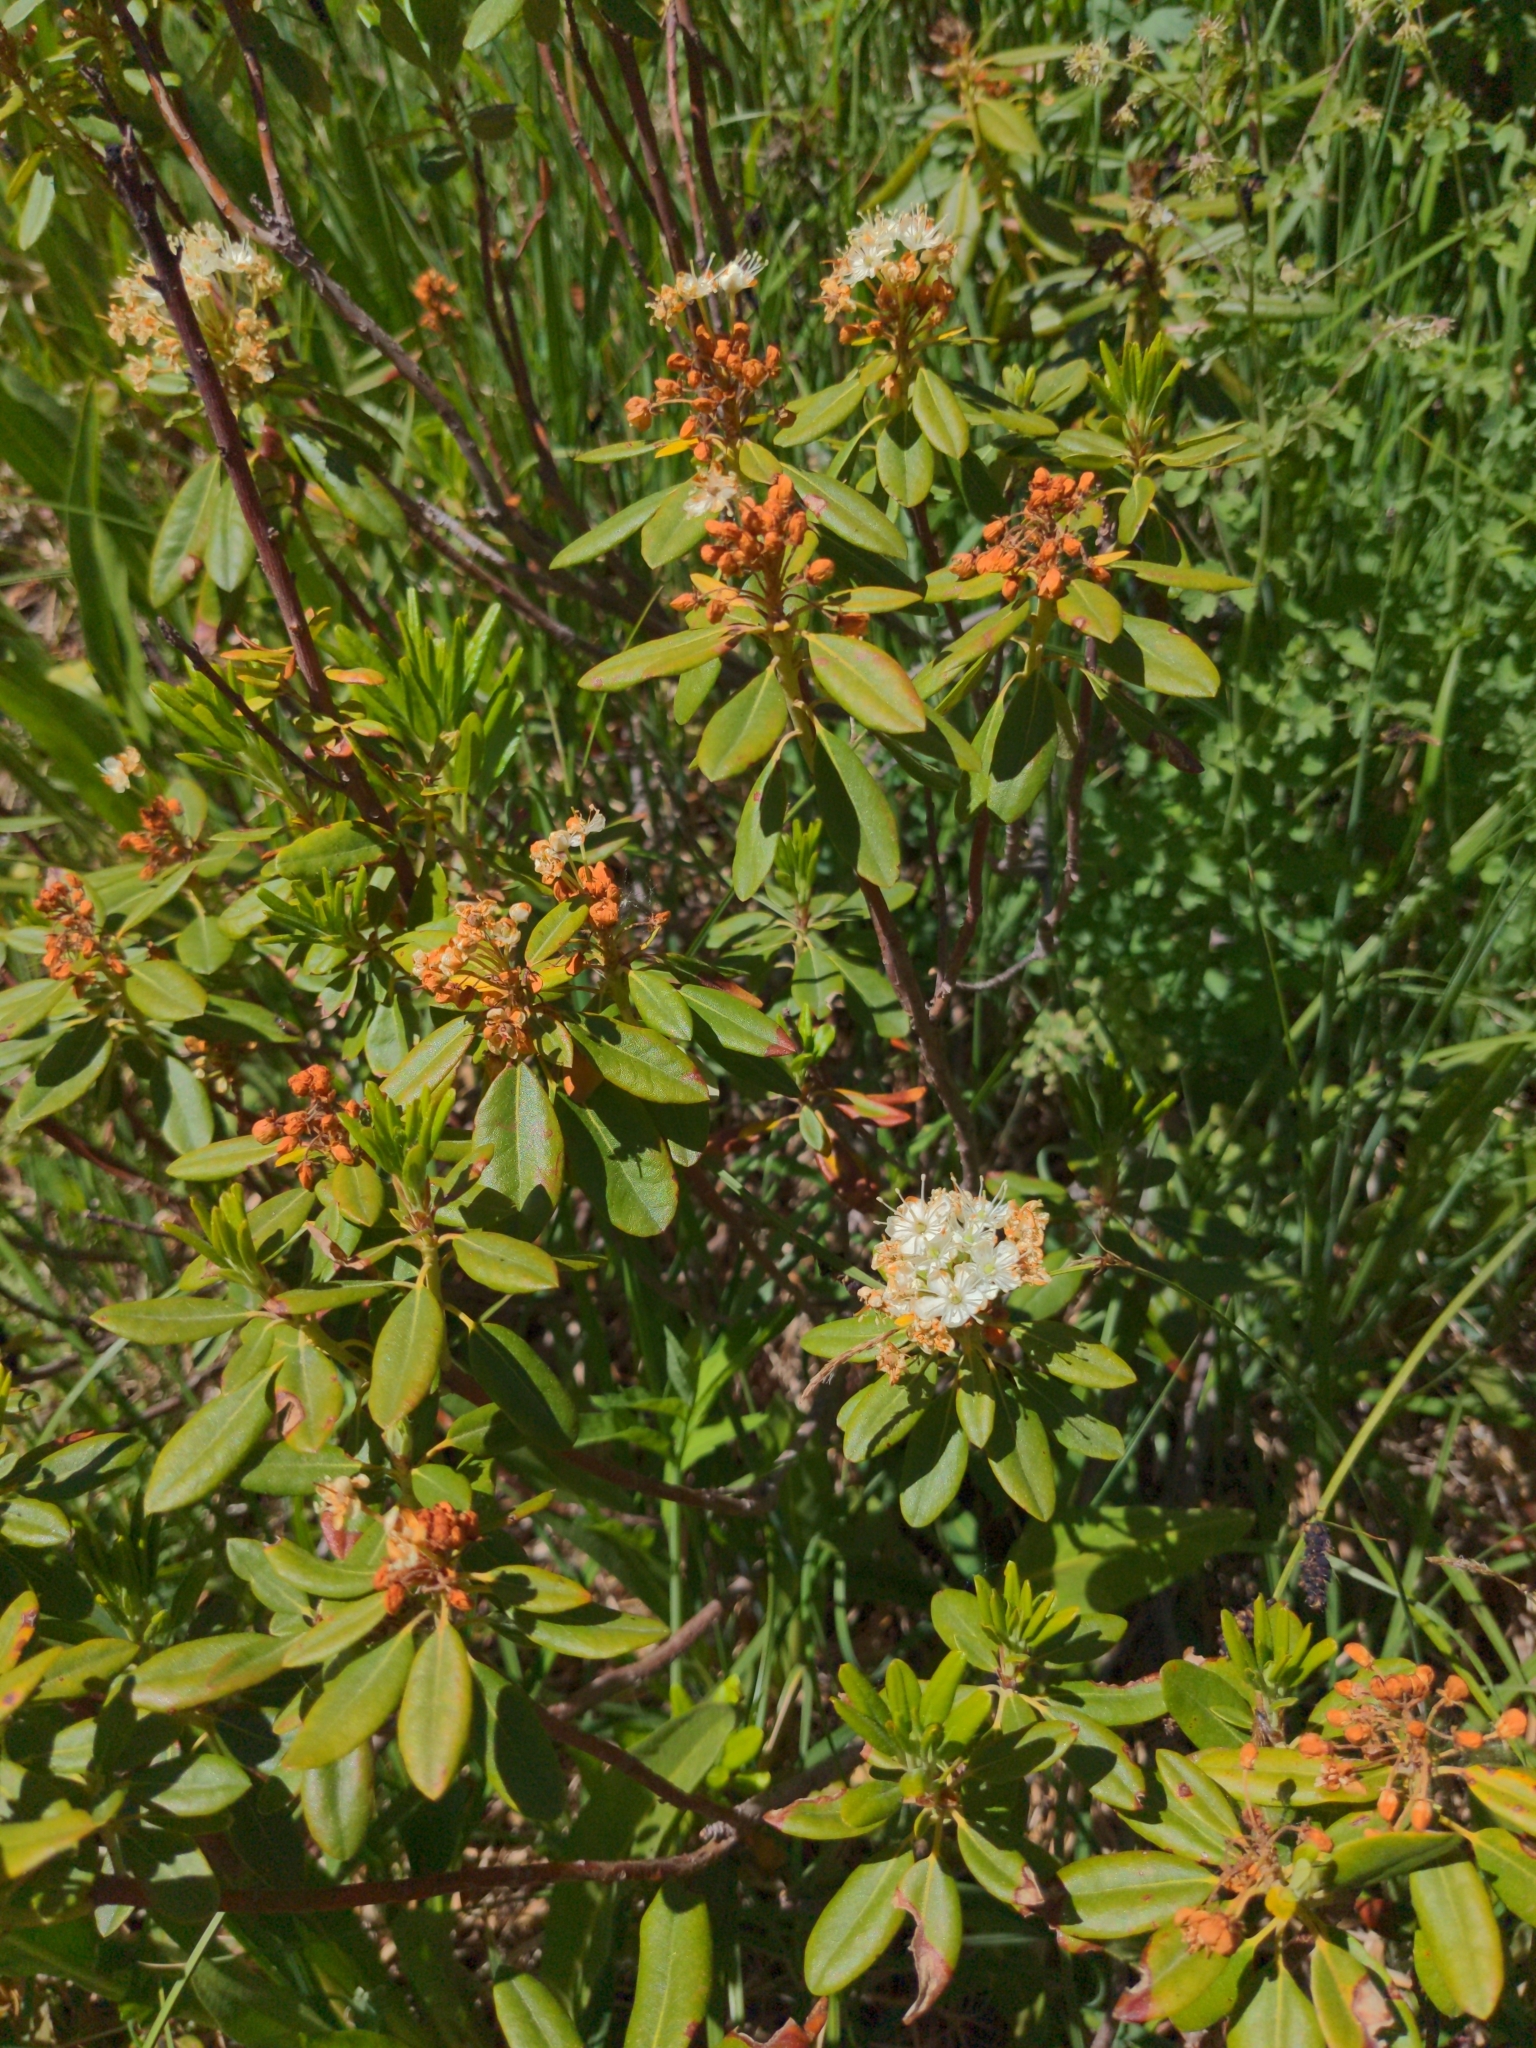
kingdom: Plantae
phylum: Tracheophyta
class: Magnoliopsida
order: Ericales
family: Ericaceae
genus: Rhododendron
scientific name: Rhododendron columbianum
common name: Western labrador tea
